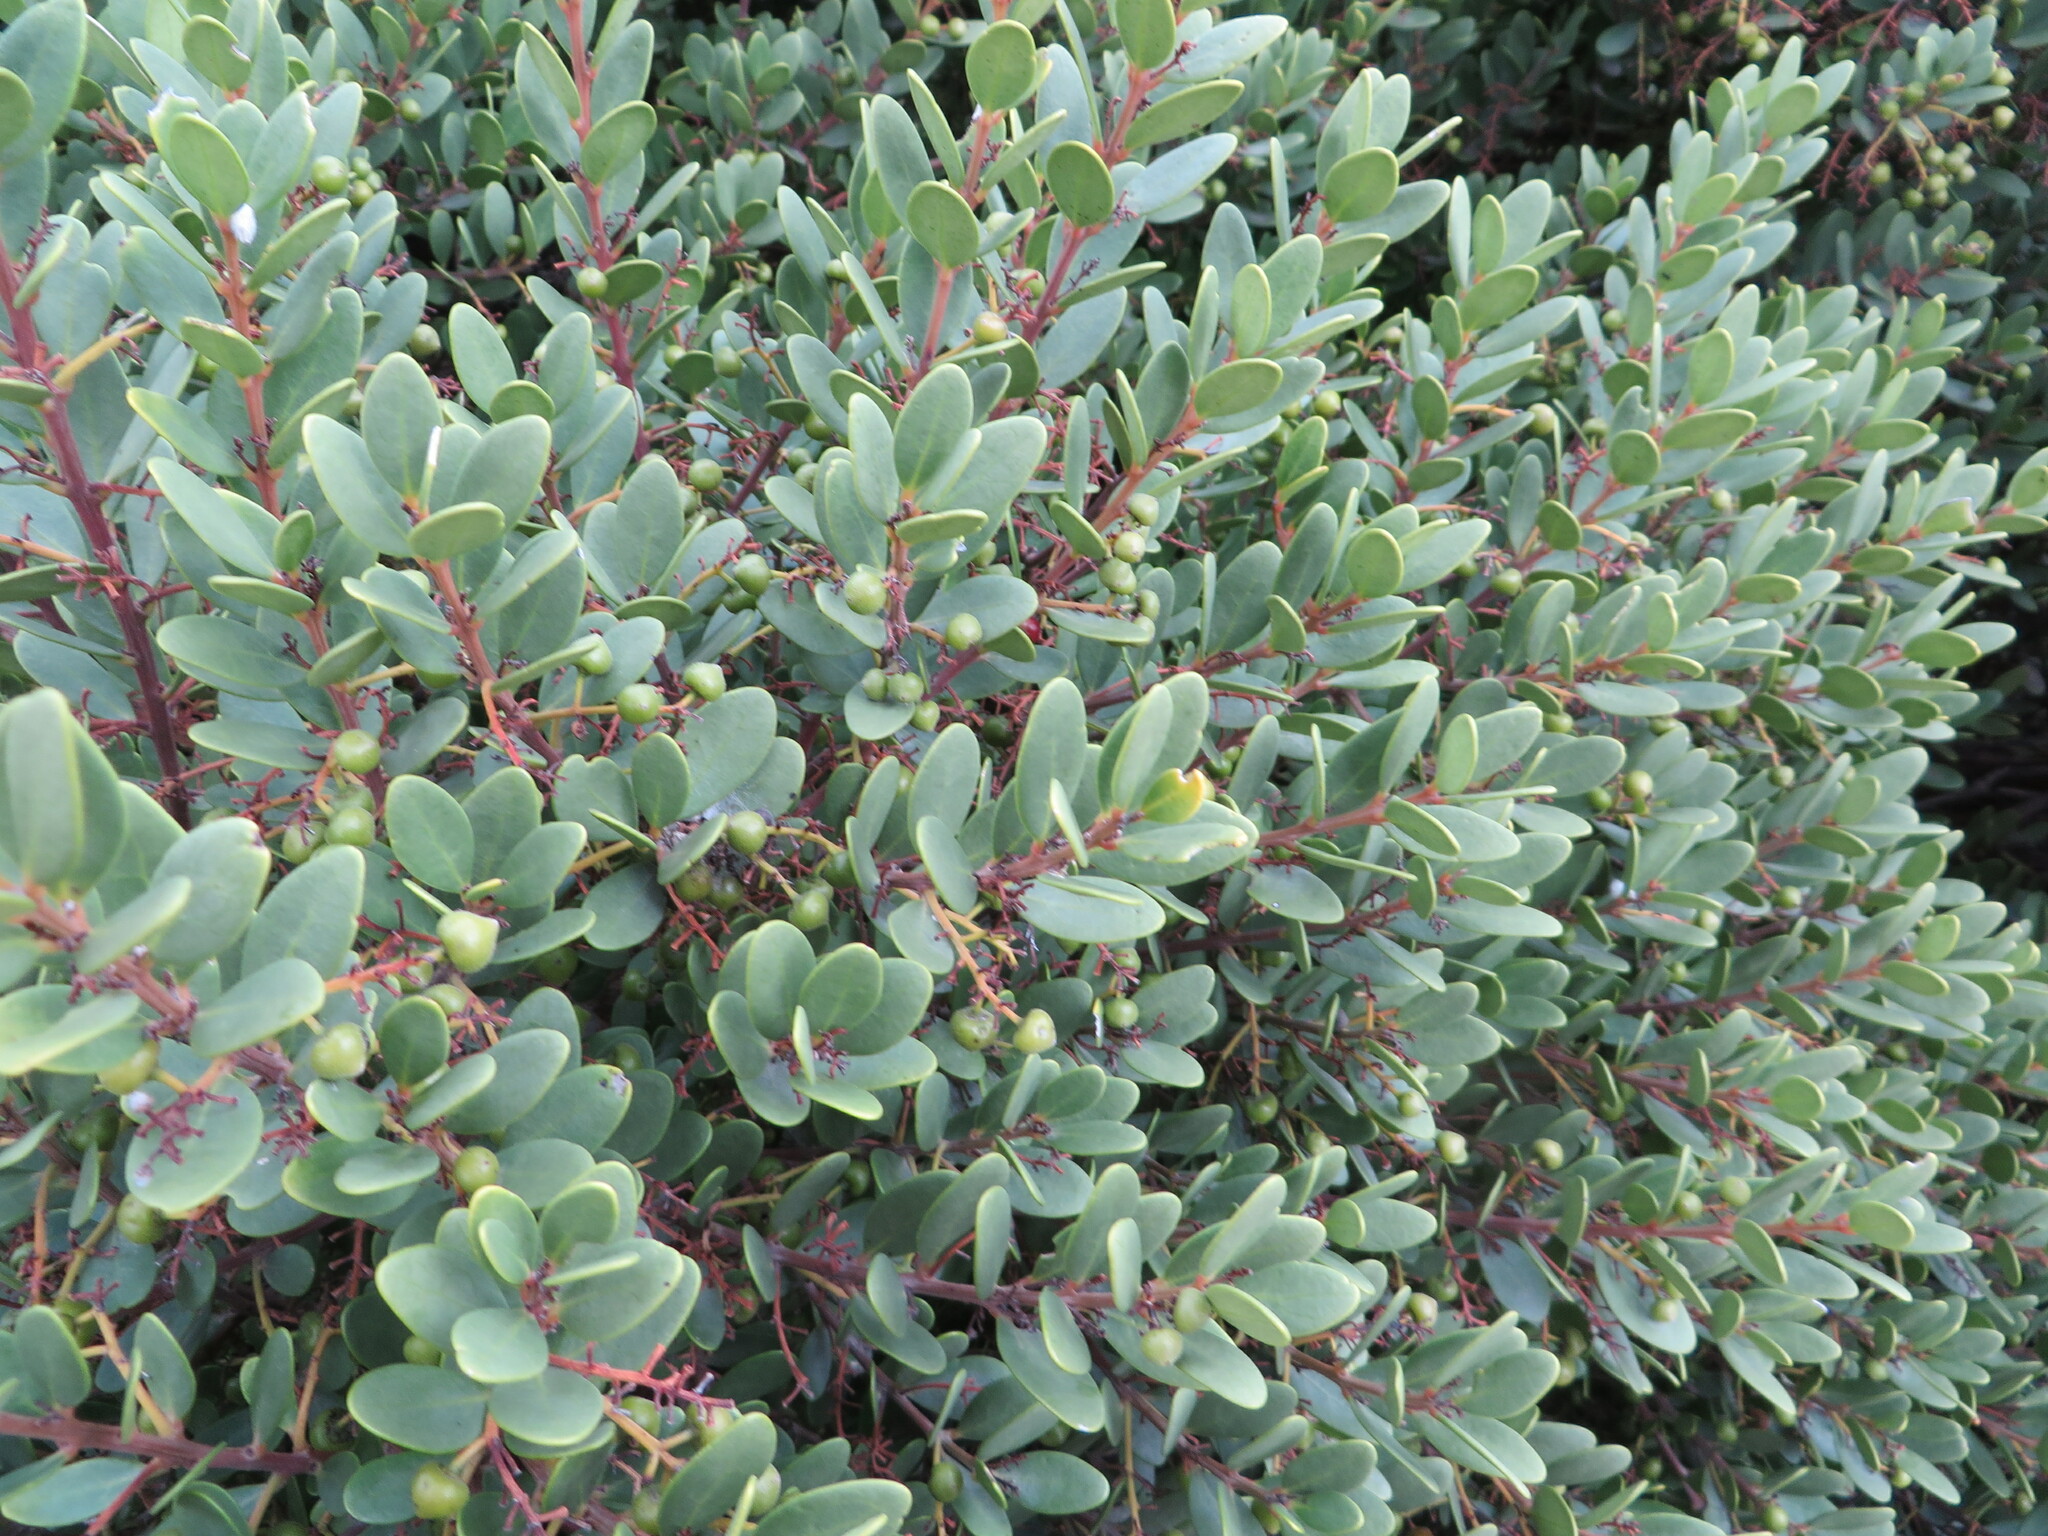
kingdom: Plantae
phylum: Tracheophyta
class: Magnoliopsida
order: Ericales
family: Ebenaceae
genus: Euclea
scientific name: Euclea racemosa
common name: Dune guarri
